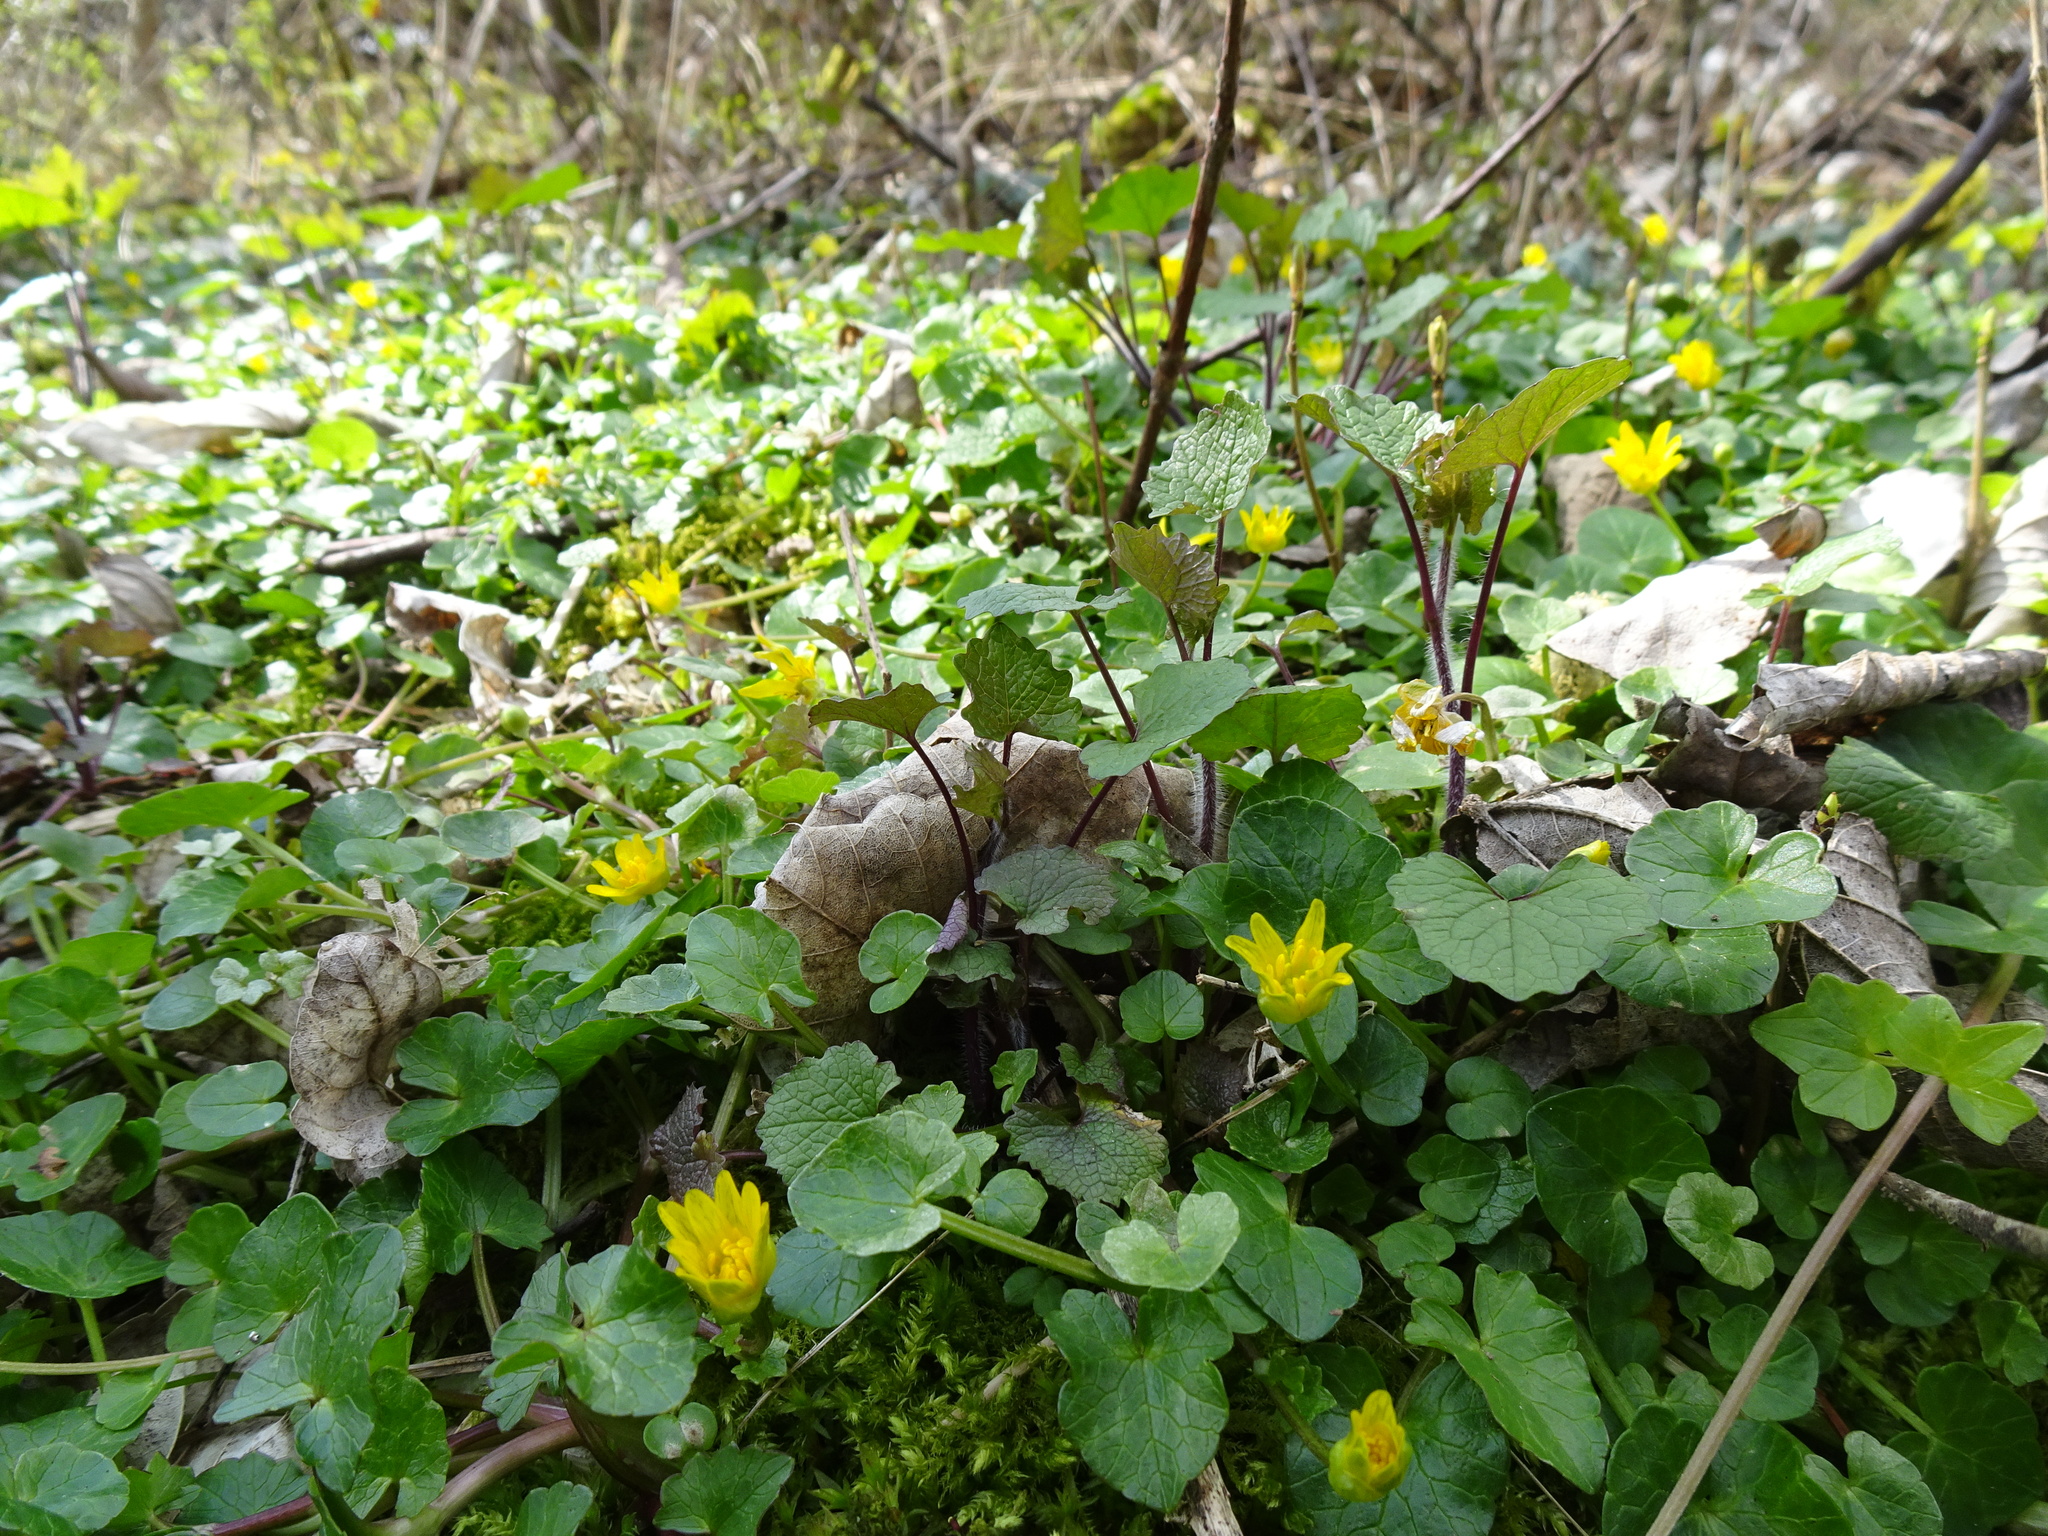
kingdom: Plantae
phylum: Tracheophyta
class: Magnoliopsida
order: Ranunculales
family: Ranunculaceae
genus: Ficaria
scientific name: Ficaria verna
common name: Lesser celandine
